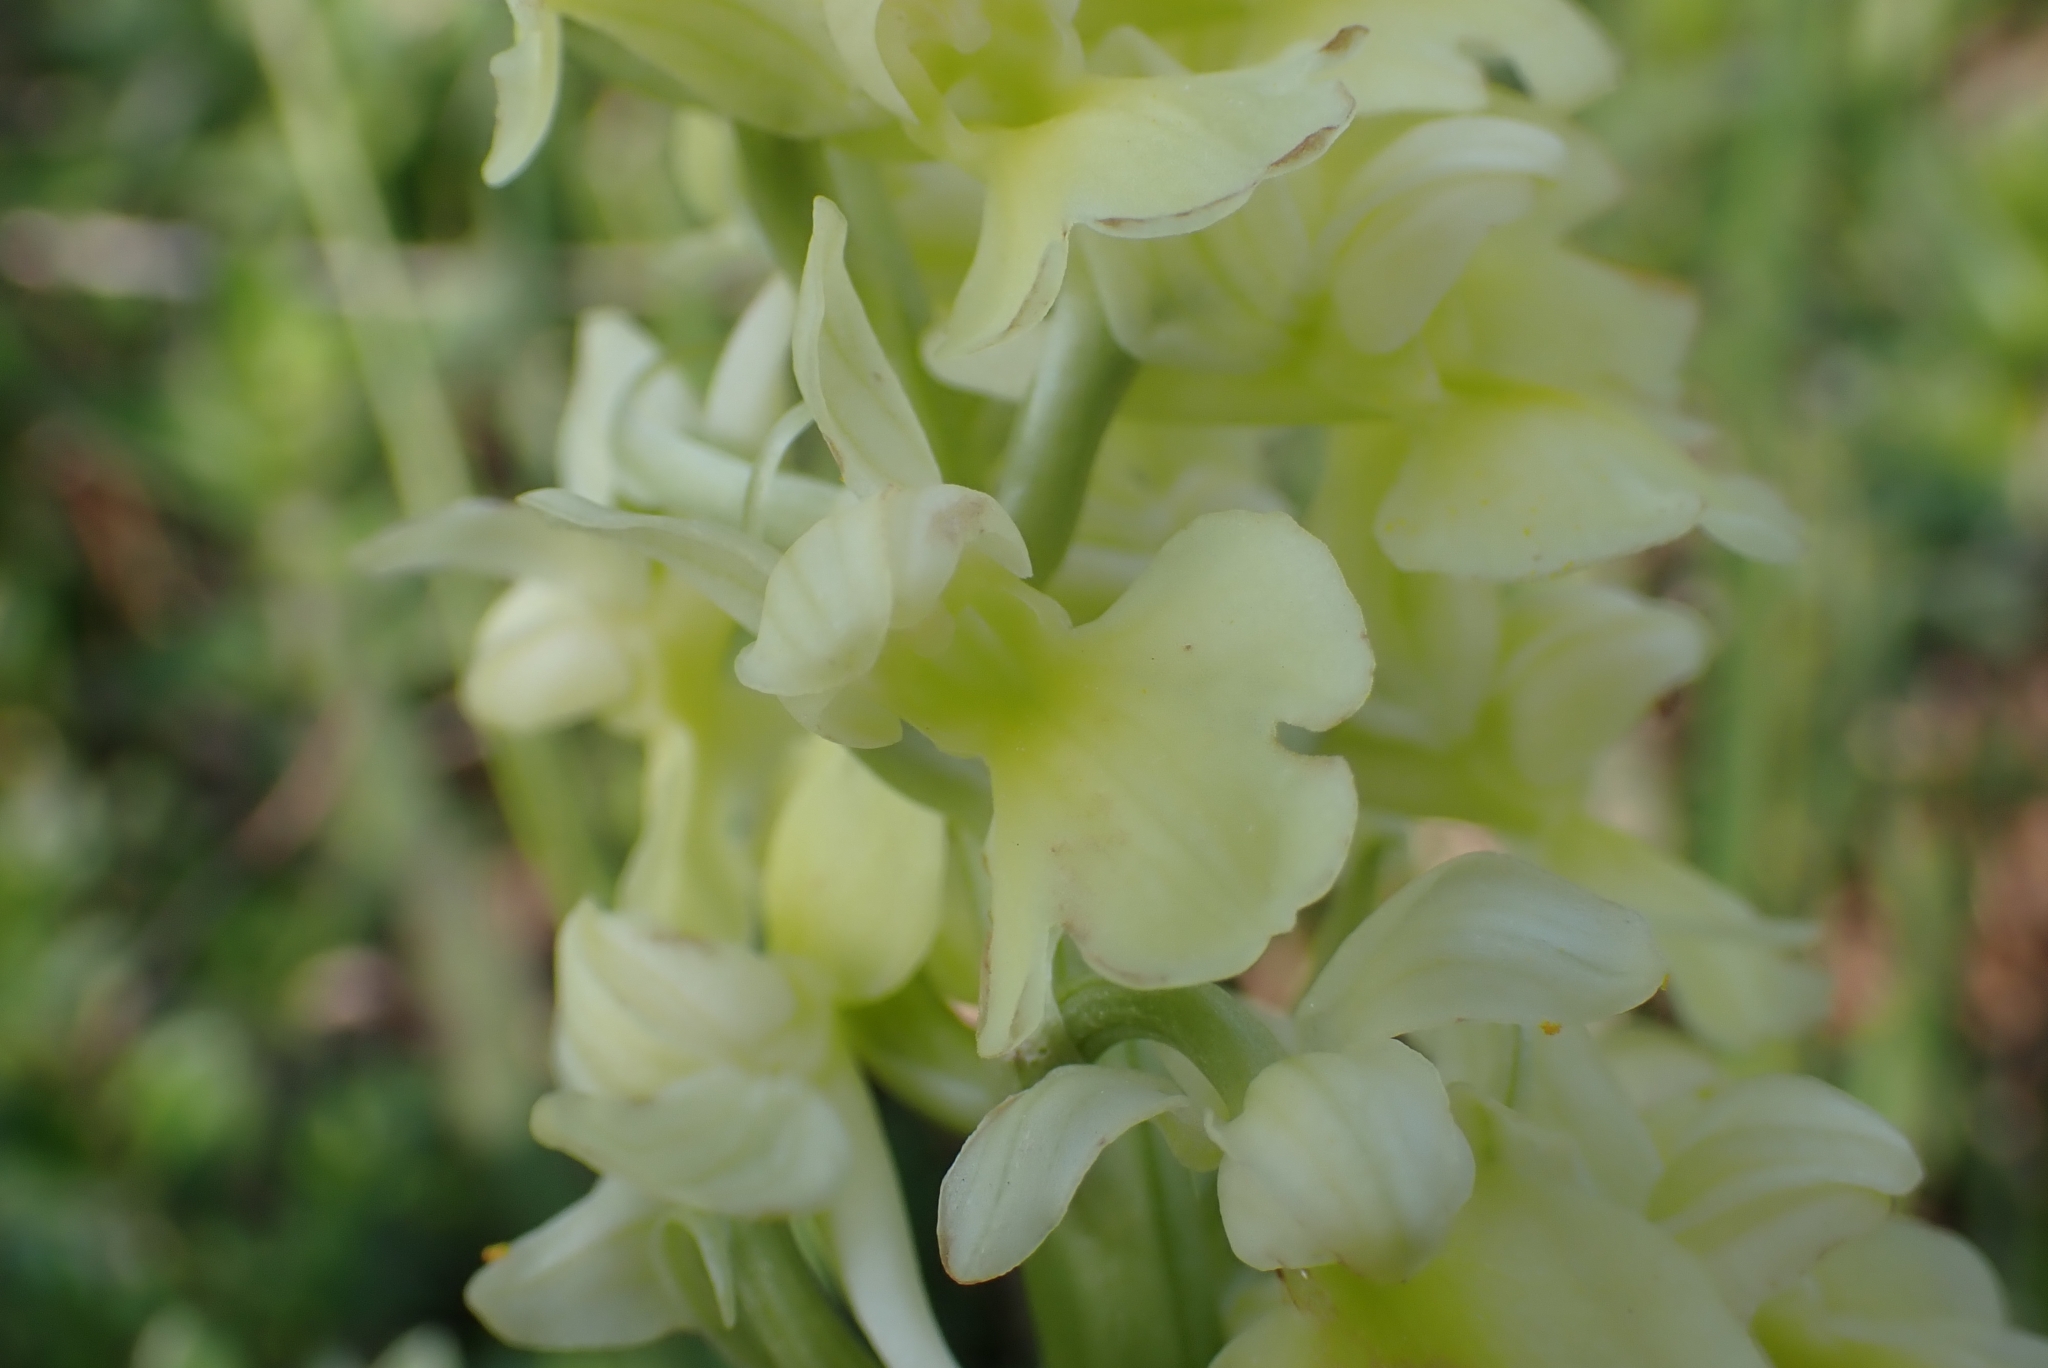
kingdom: Plantae
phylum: Tracheophyta
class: Liliopsida
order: Asparagales
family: Orchidaceae
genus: Orchis
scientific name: Orchis pallens
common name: Pale-flowered orchid
